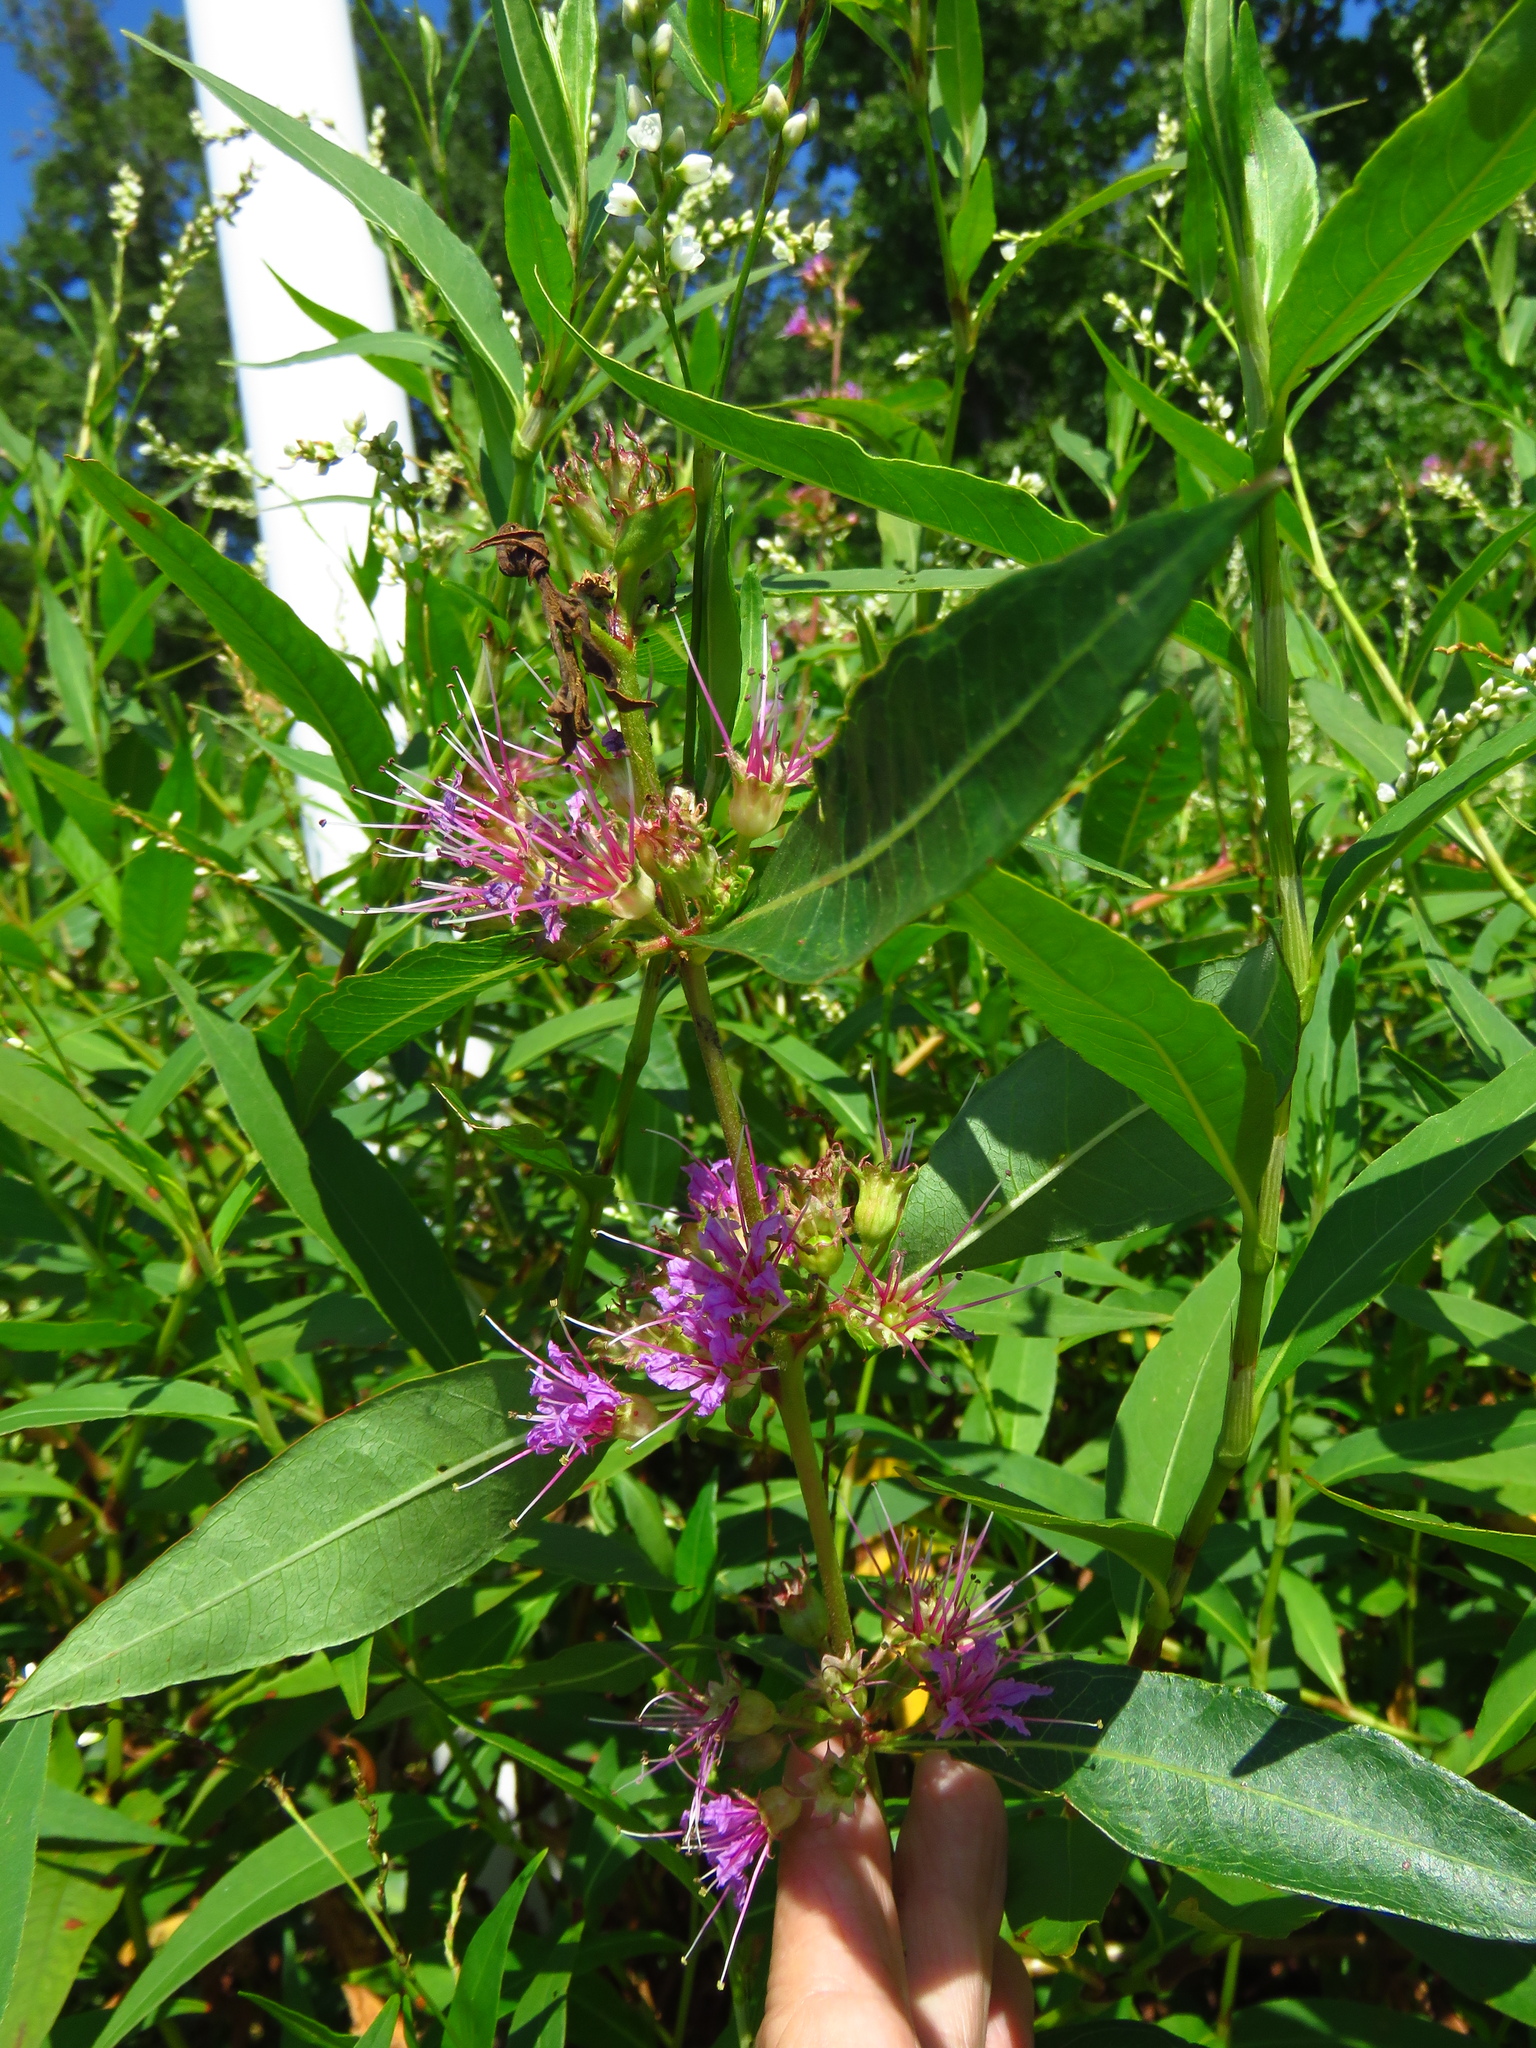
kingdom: Plantae
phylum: Tracheophyta
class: Magnoliopsida
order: Myrtales
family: Lythraceae
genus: Decodon
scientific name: Decodon verticillatus
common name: Hairy swamp loosestrife
